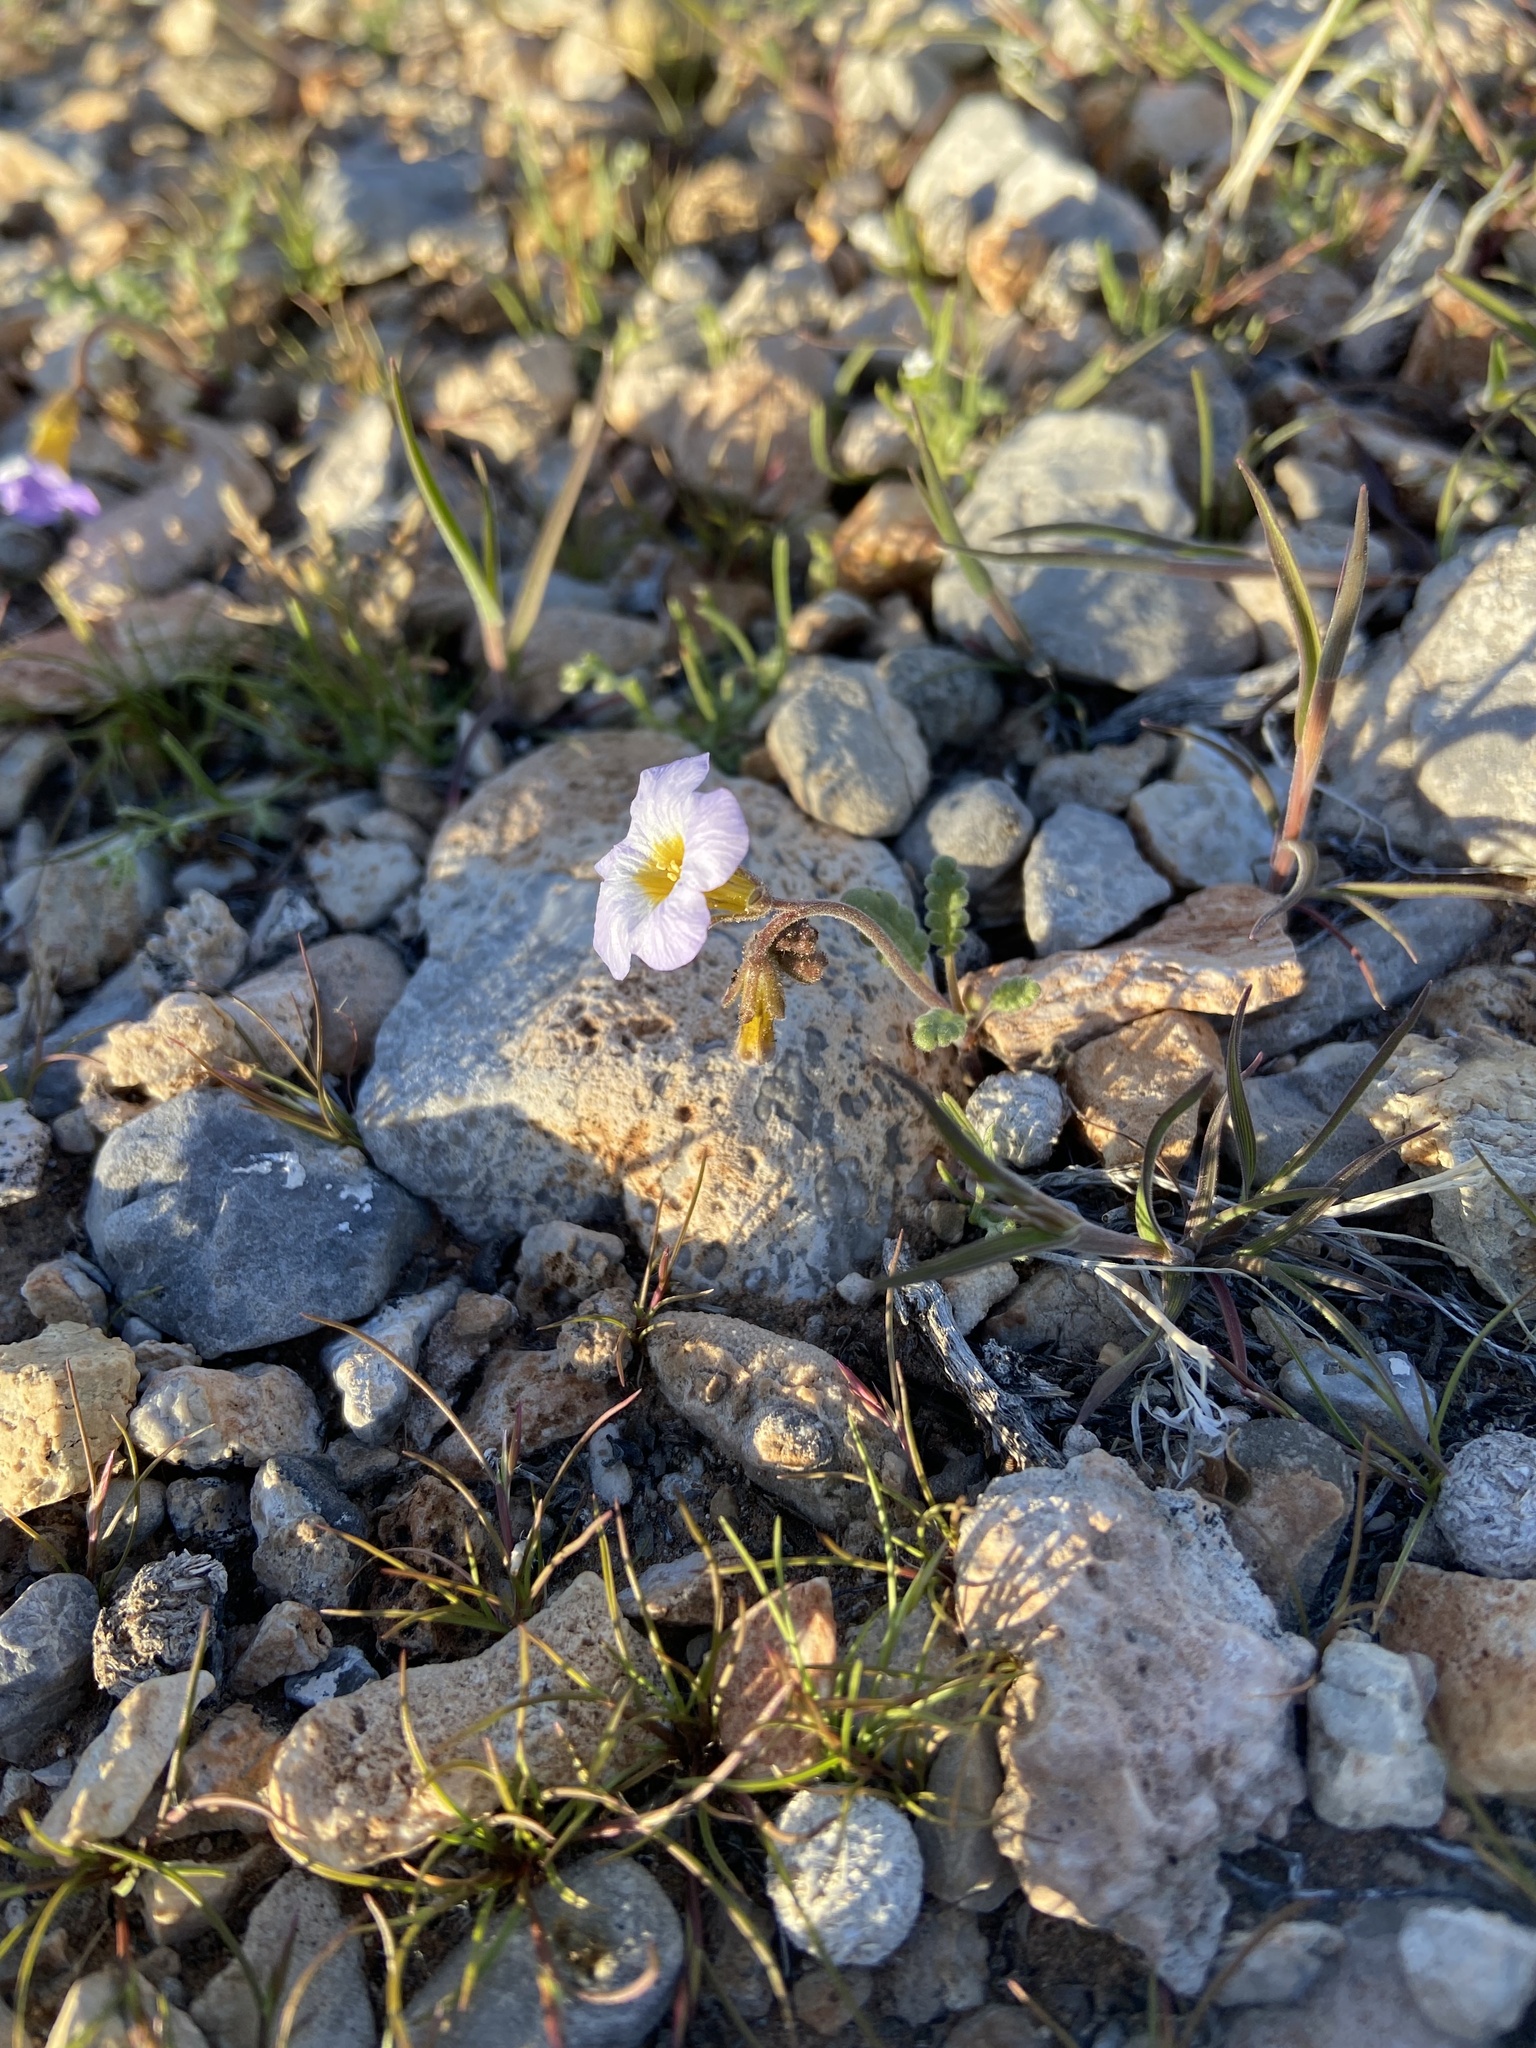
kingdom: Plantae
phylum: Tracheophyta
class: Magnoliopsida
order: Boraginales
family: Hydrophyllaceae
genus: Phacelia
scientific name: Phacelia fremontii
